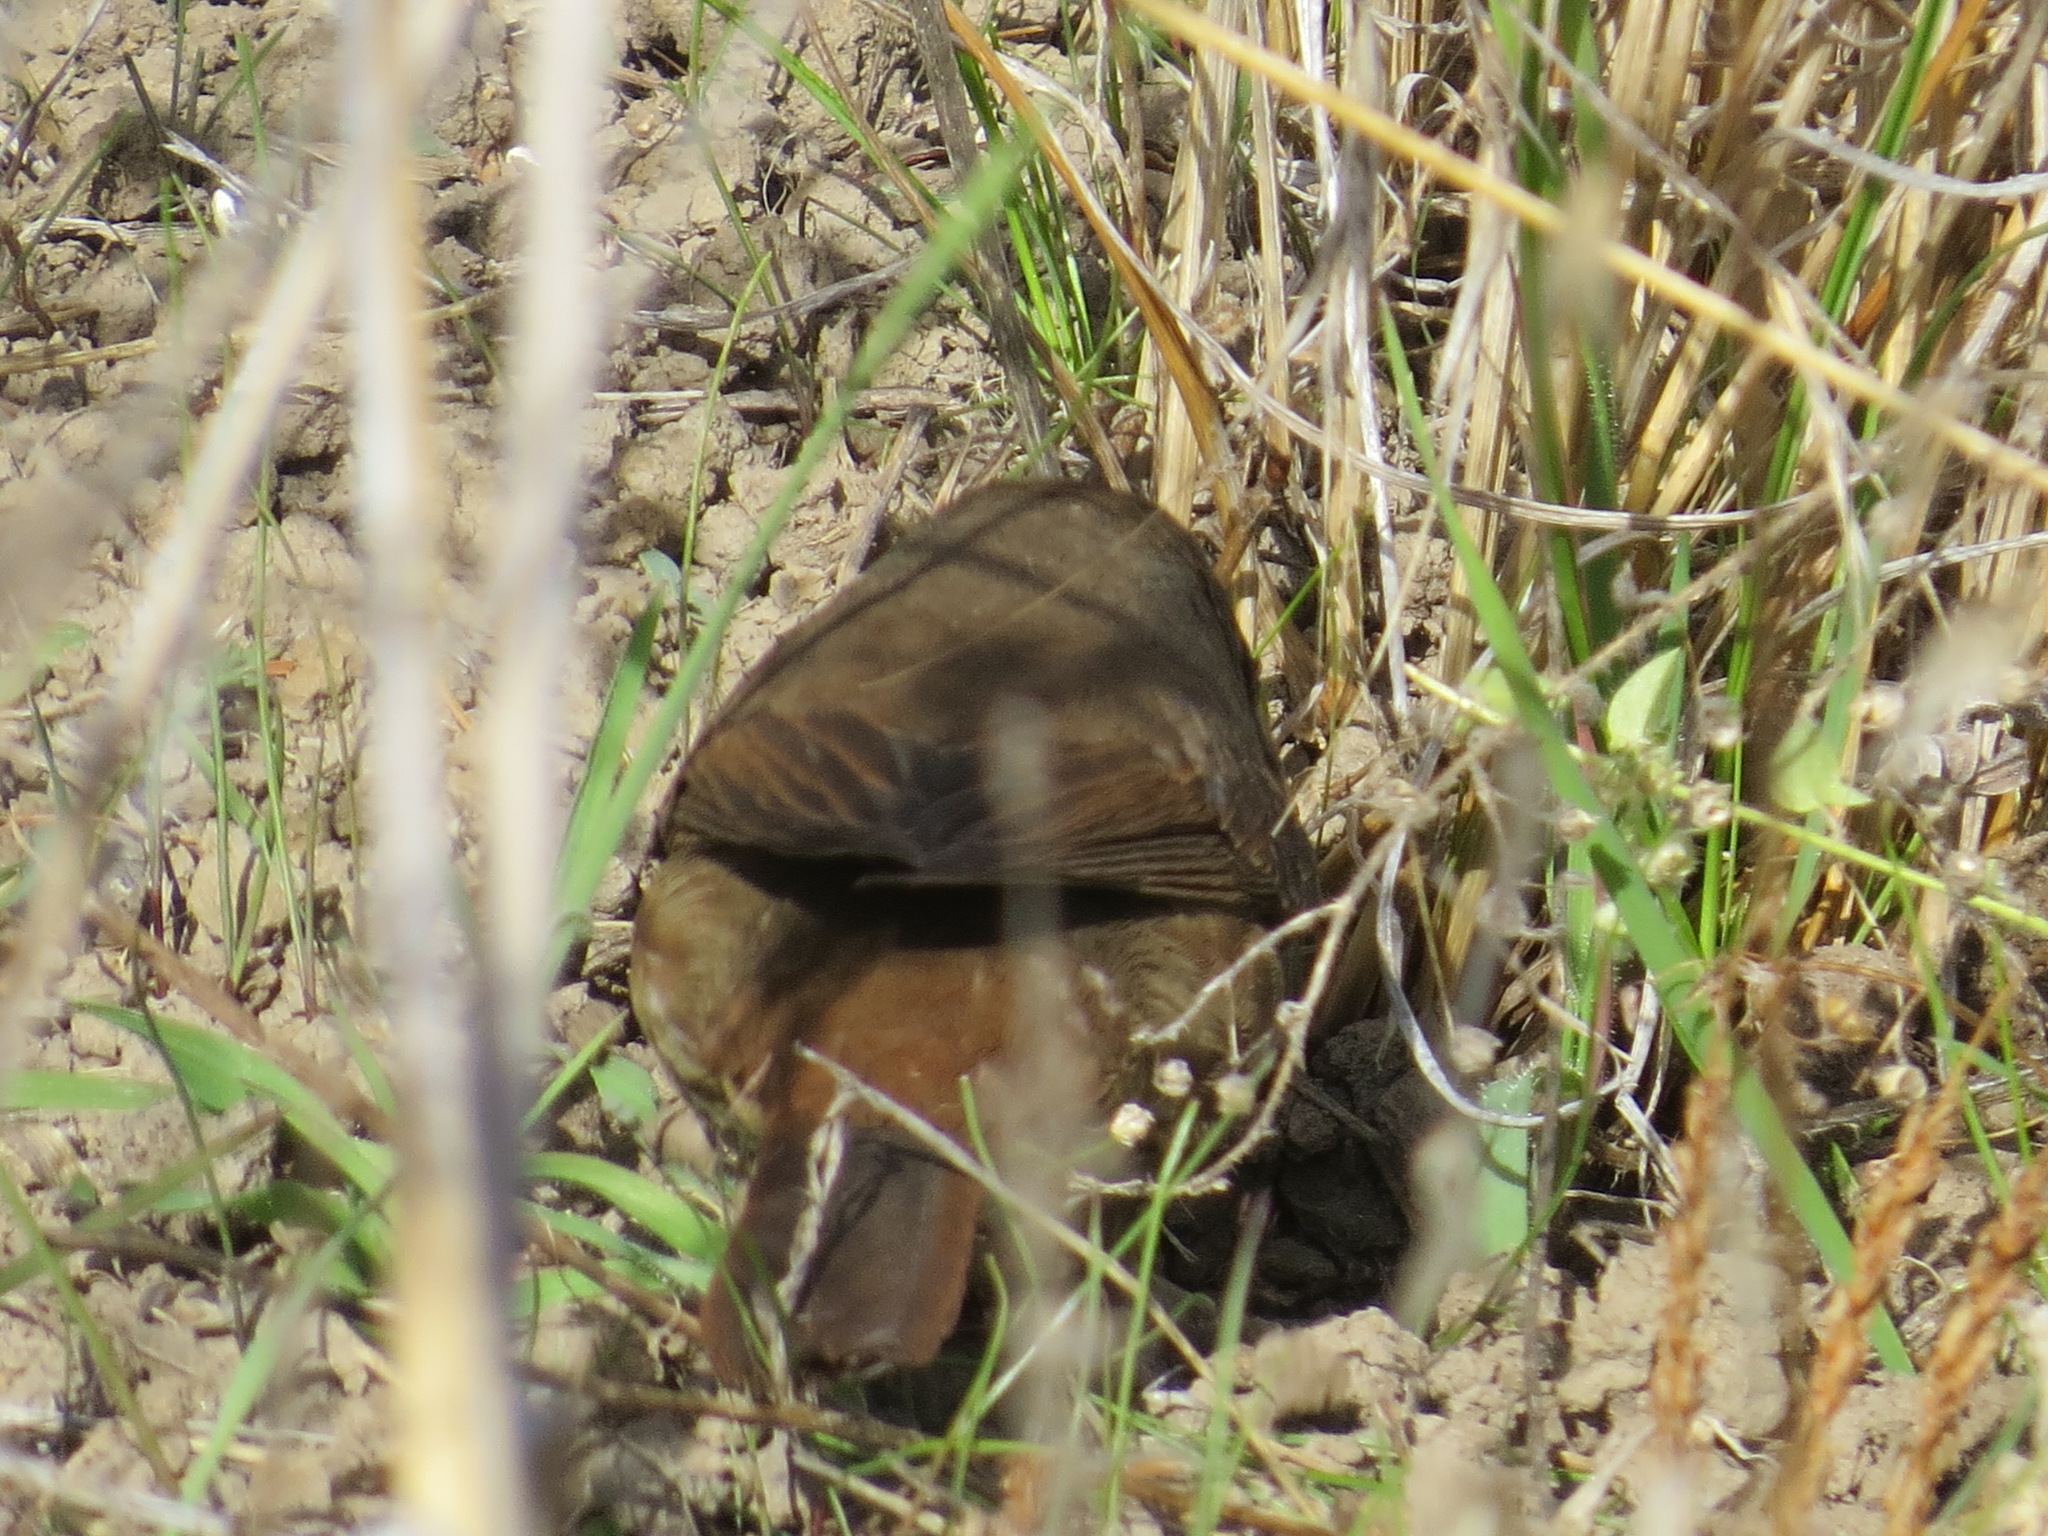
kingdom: Animalia
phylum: Chordata
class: Aves
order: Passeriformes
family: Passerellidae
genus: Passerella
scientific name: Passerella iliaca
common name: Fox sparrow
